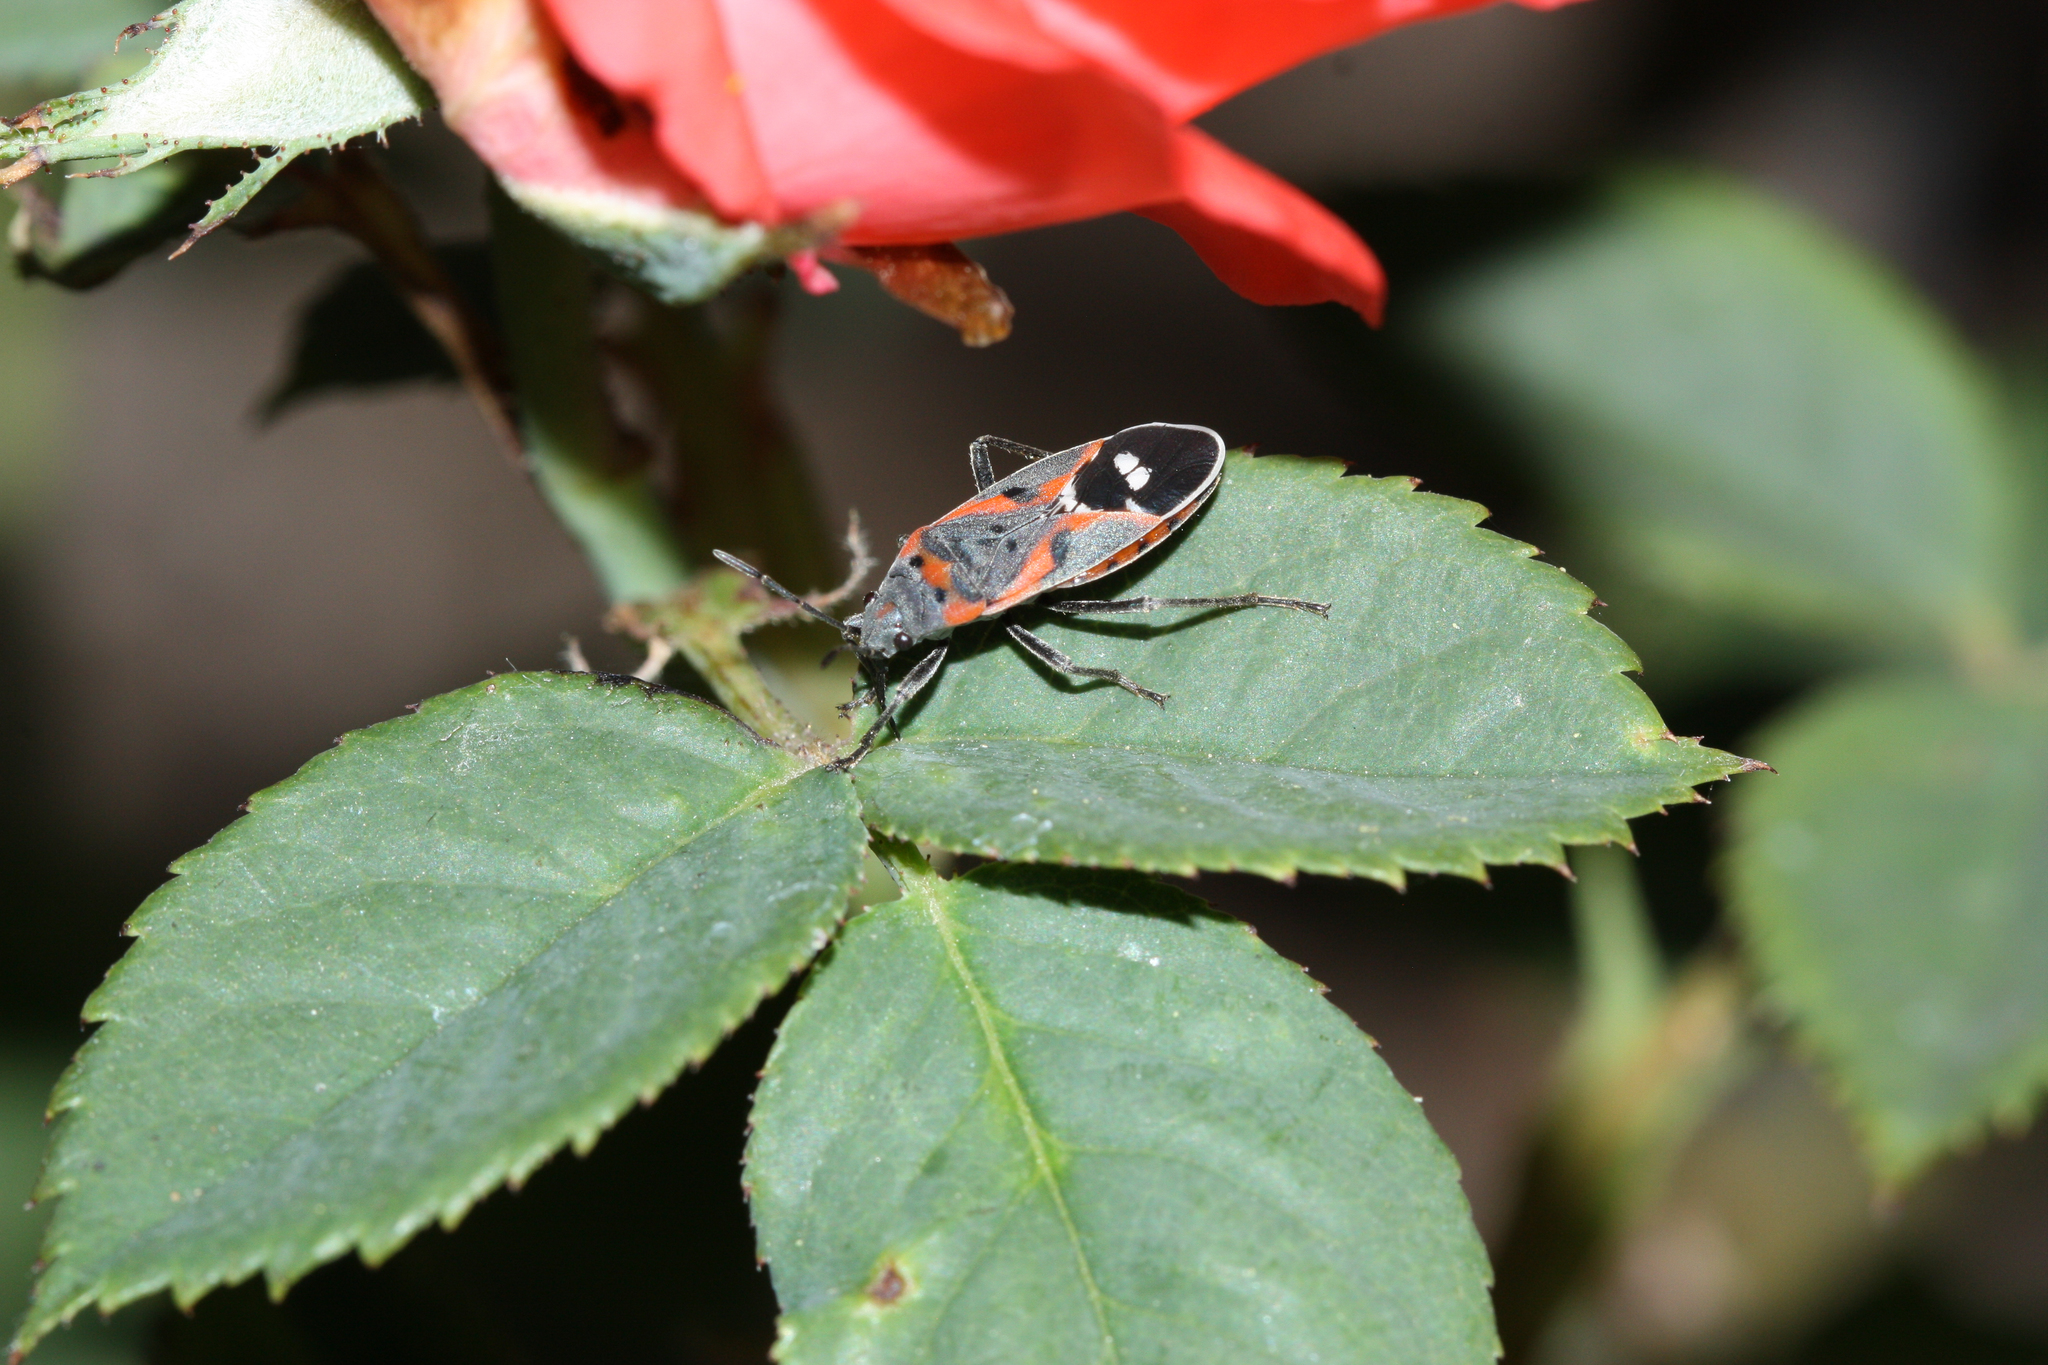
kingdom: Animalia
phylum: Arthropoda
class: Insecta
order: Hemiptera
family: Lygaeidae
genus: Lygaeus
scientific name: Lygaeus kalmii
